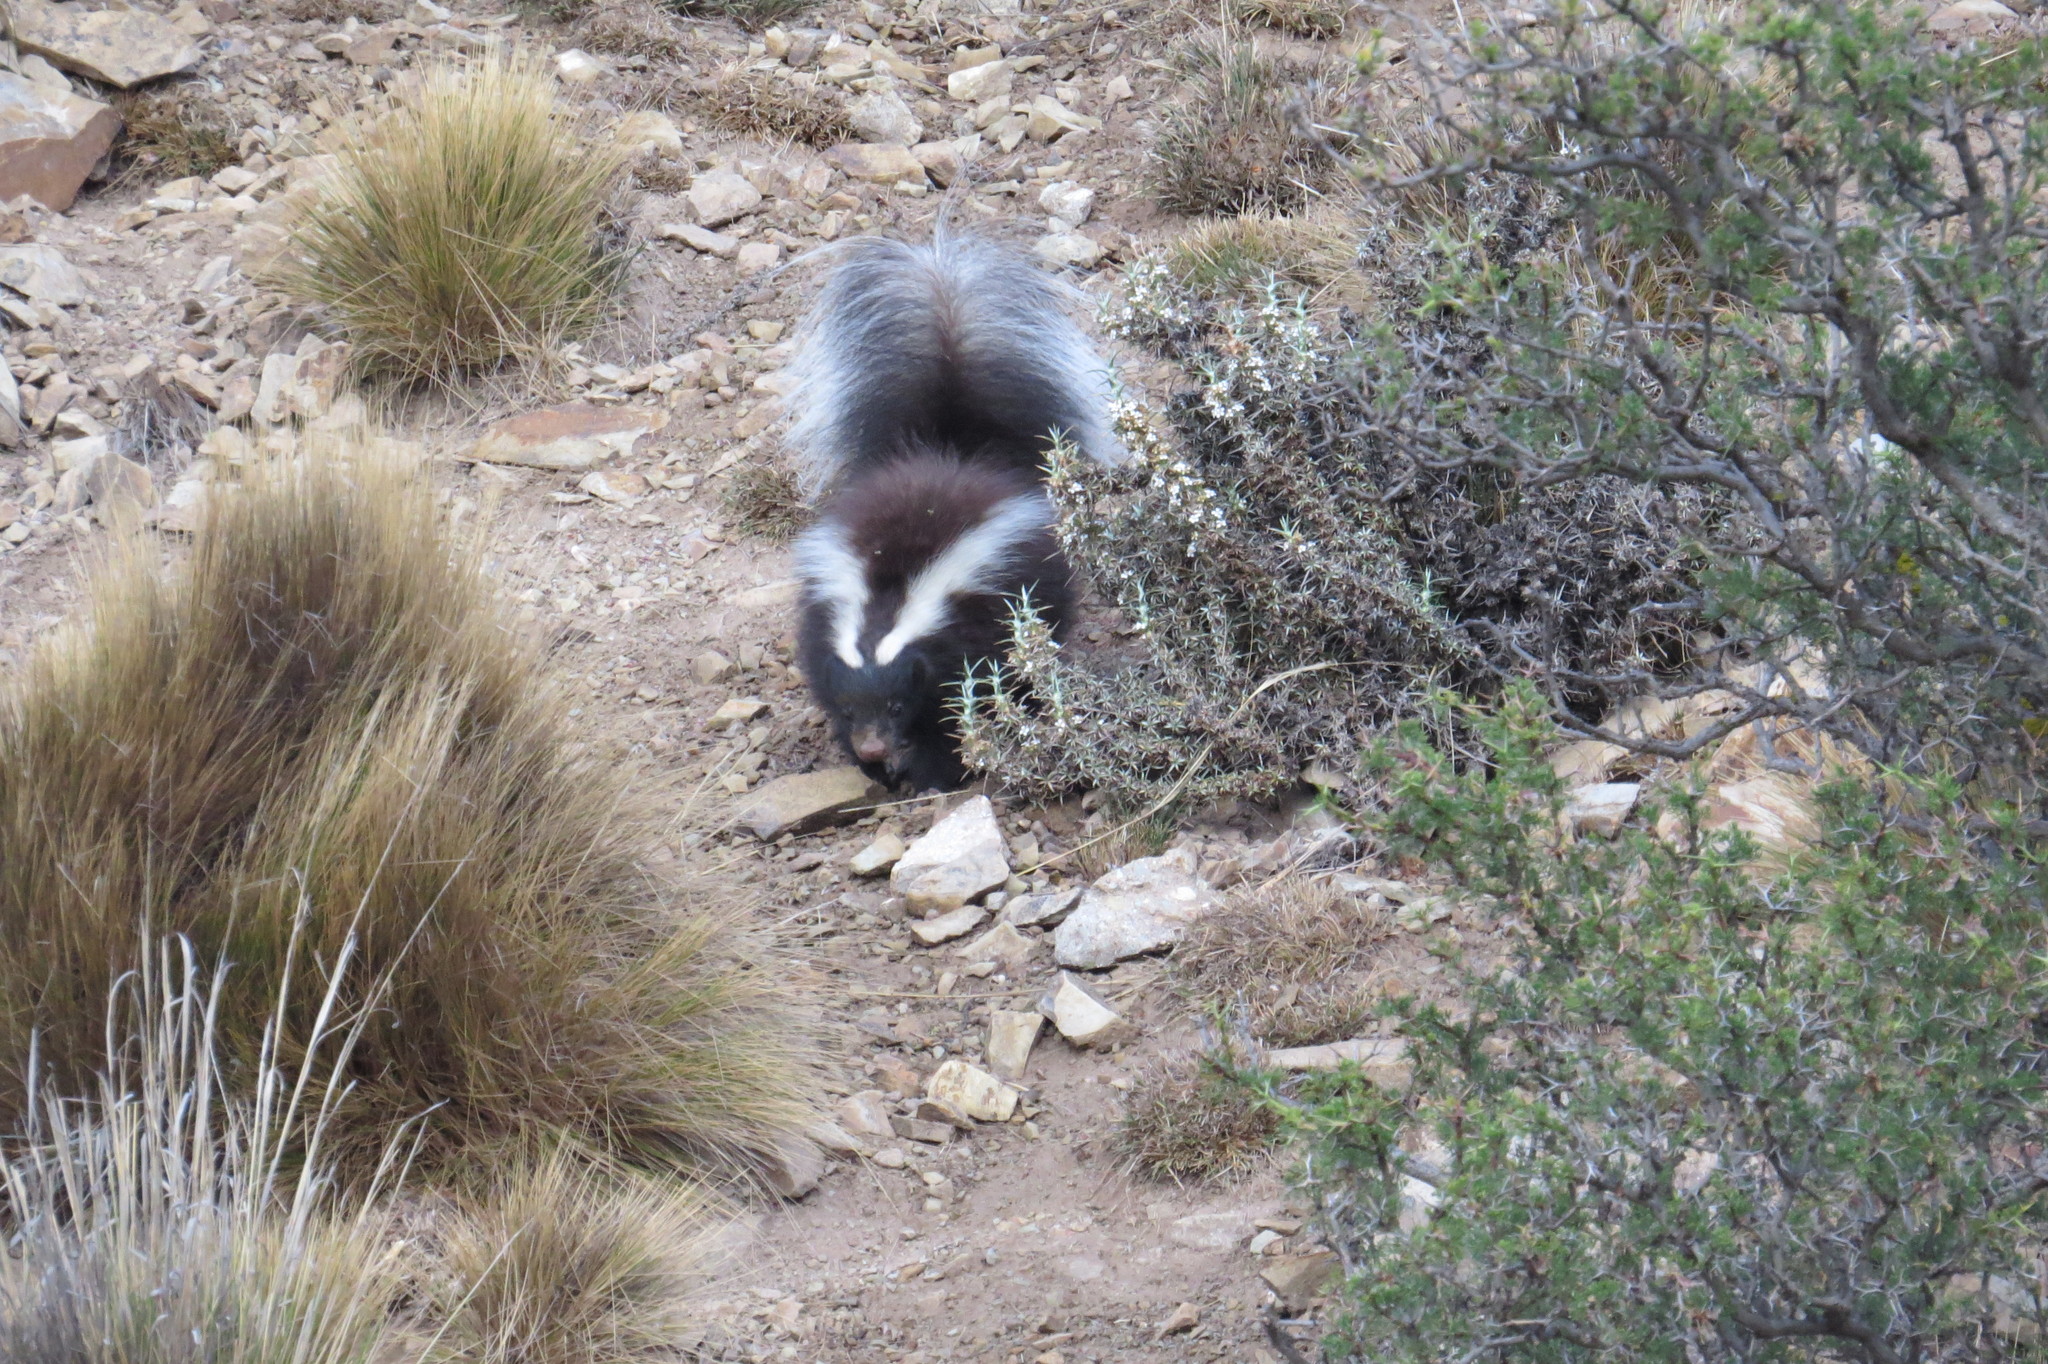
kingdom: Animalia
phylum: Chordata
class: Mammalia
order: Carnivora
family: Mephitidae
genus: Conepatus
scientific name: Conepatus chinga
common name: Molina's hog-nosed skunk
